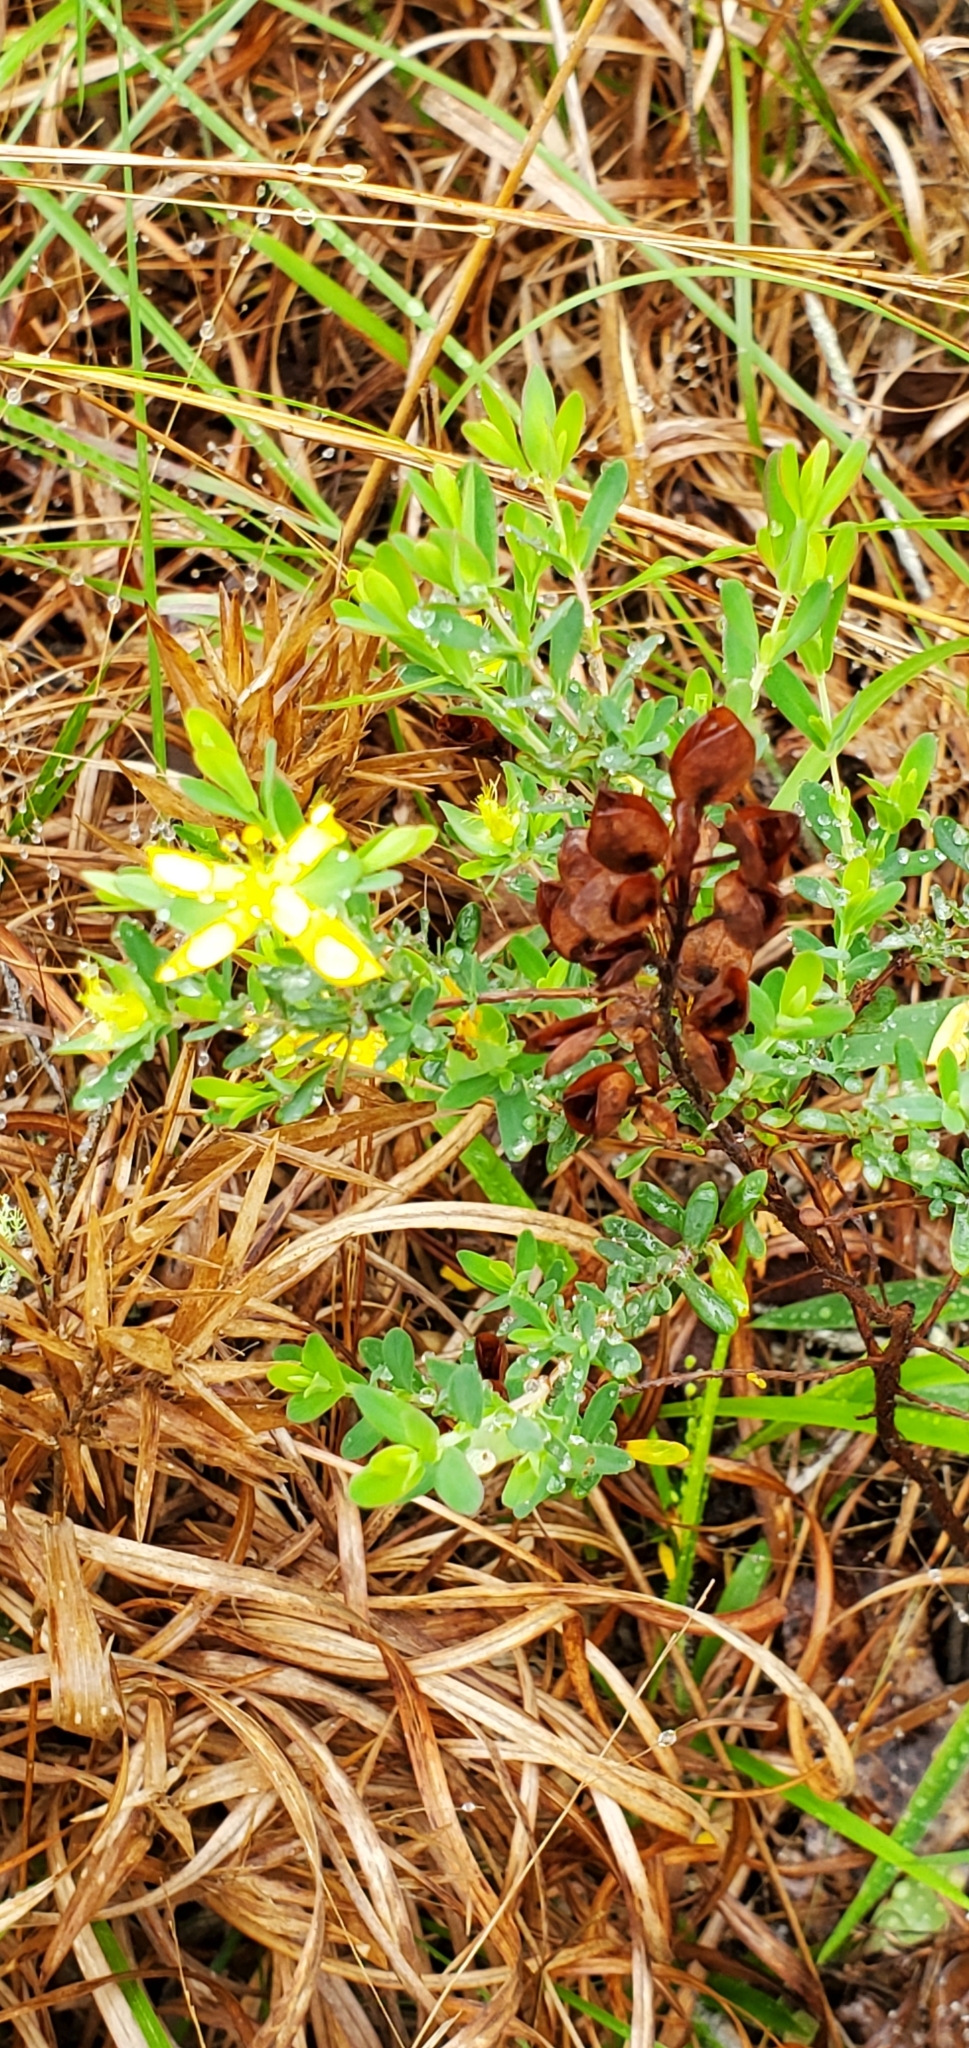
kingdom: Plantae
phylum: Tracheophyta
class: Magnoliopsida
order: Malpighiales
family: Hypericaceae
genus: Hypericum
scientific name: Hypericum hypericoides
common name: St. andrew's cross
